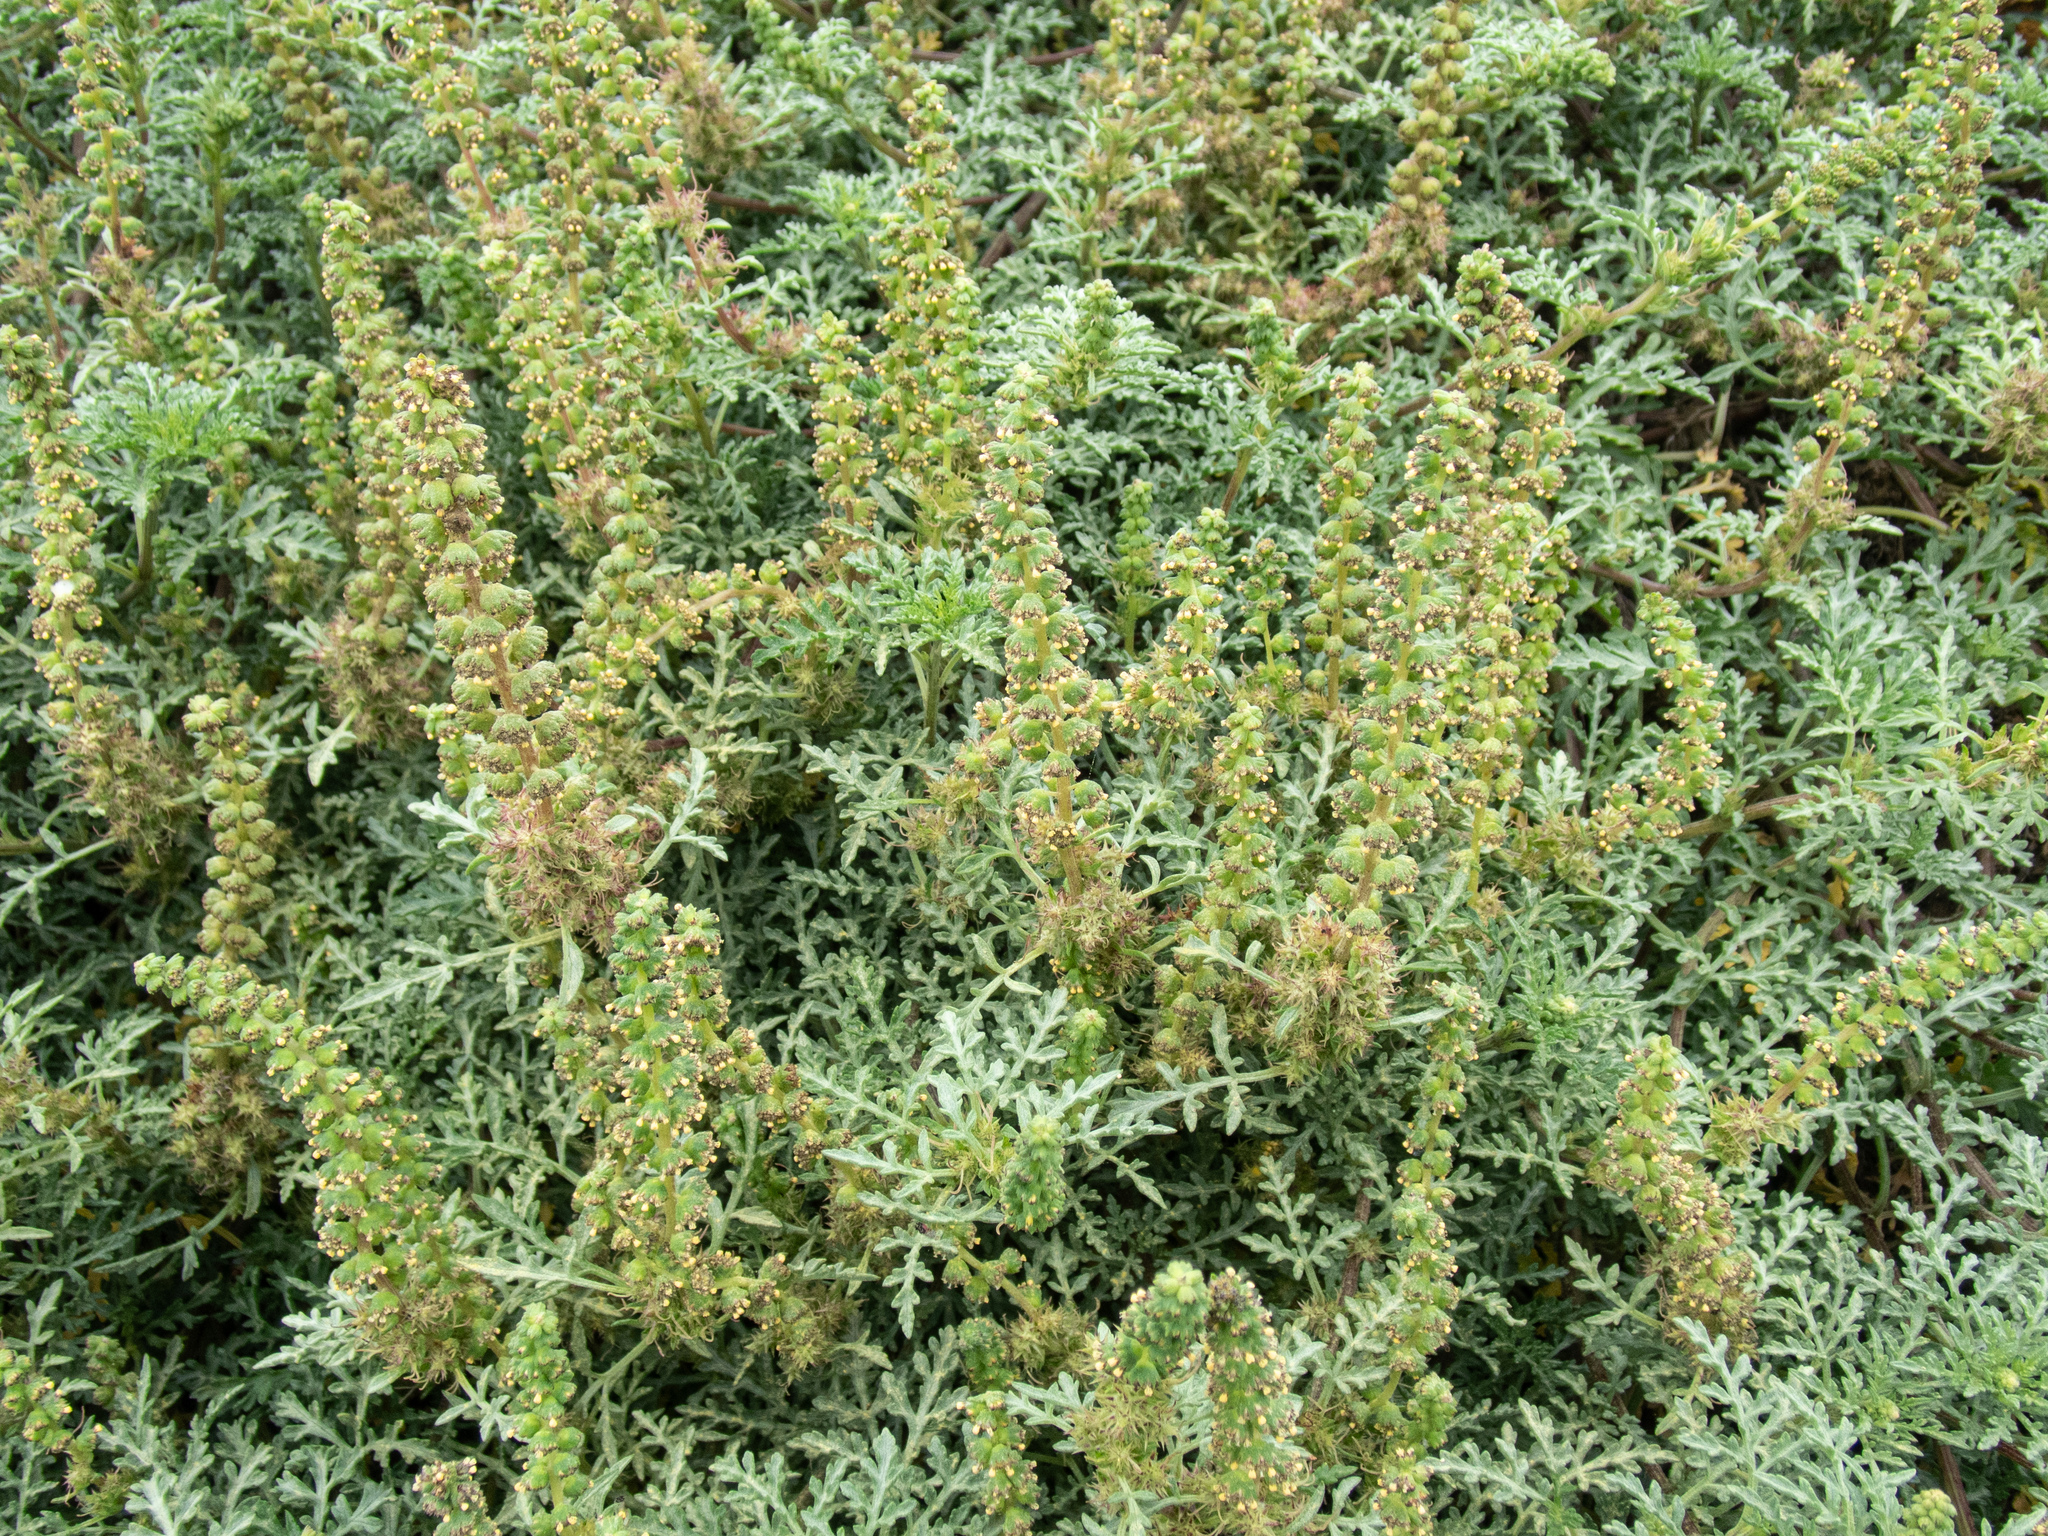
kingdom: Plantae
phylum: Tracheophyta
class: Magnoliopsida
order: Asterales
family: Asteraceae
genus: Ambrosia
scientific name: Ambrosia chamissonis
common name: Beachbur
